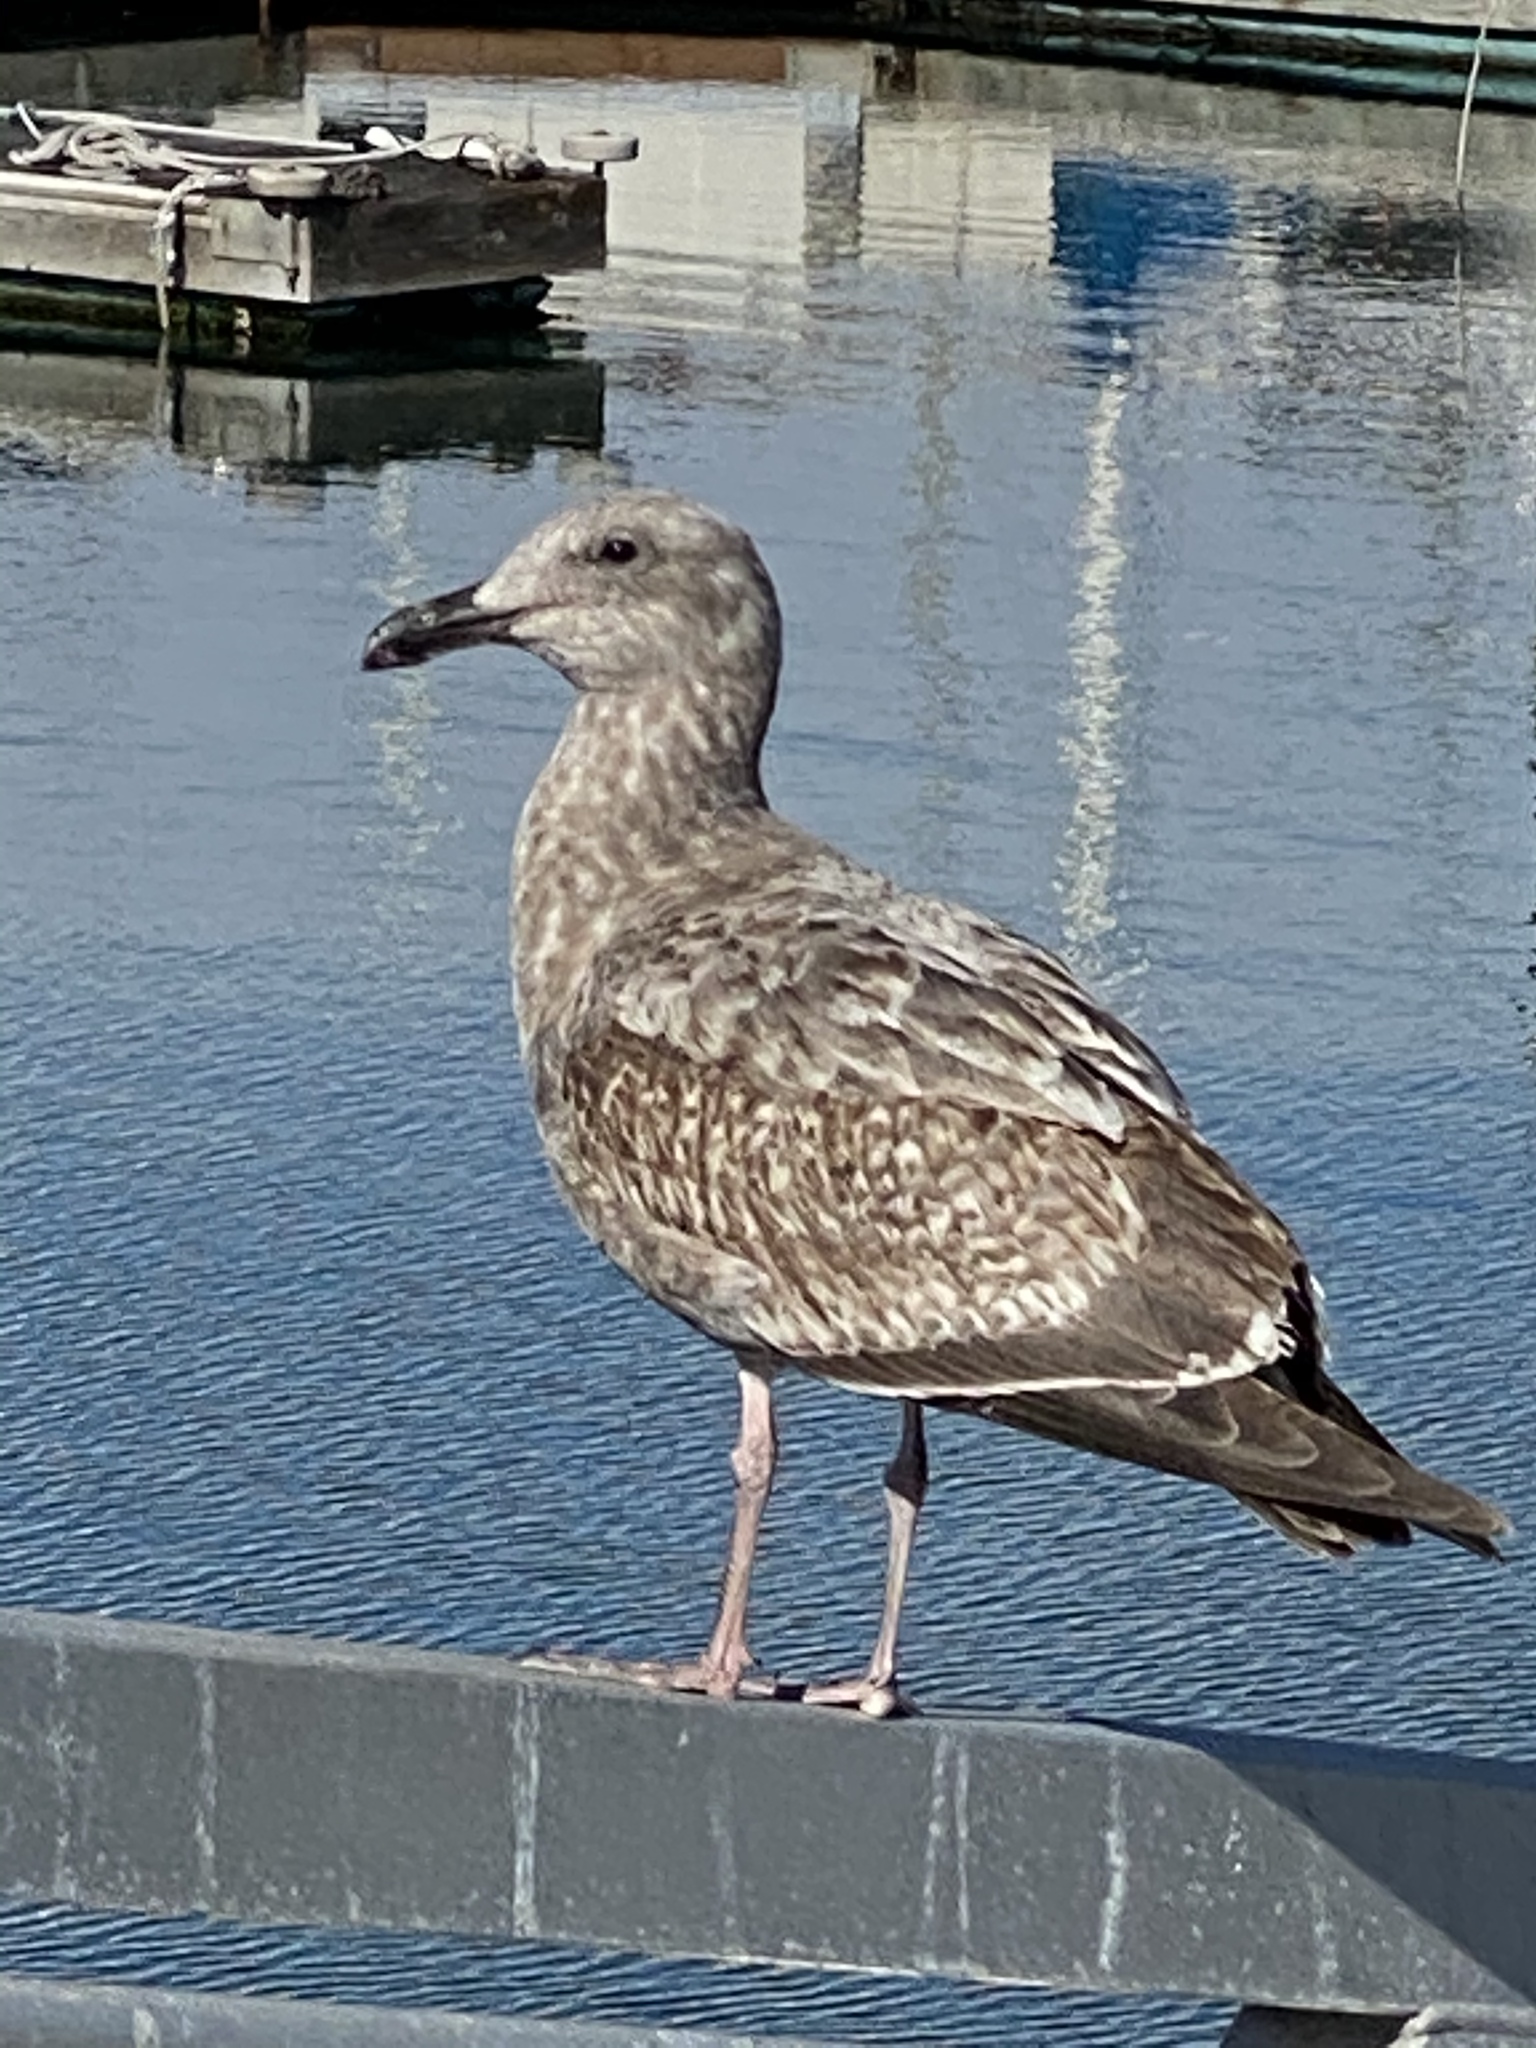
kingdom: Animalia
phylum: Chordata
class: Aves
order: Charadriiformes
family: Laridae
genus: Larus
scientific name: Larus occidentalis
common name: Western gull
